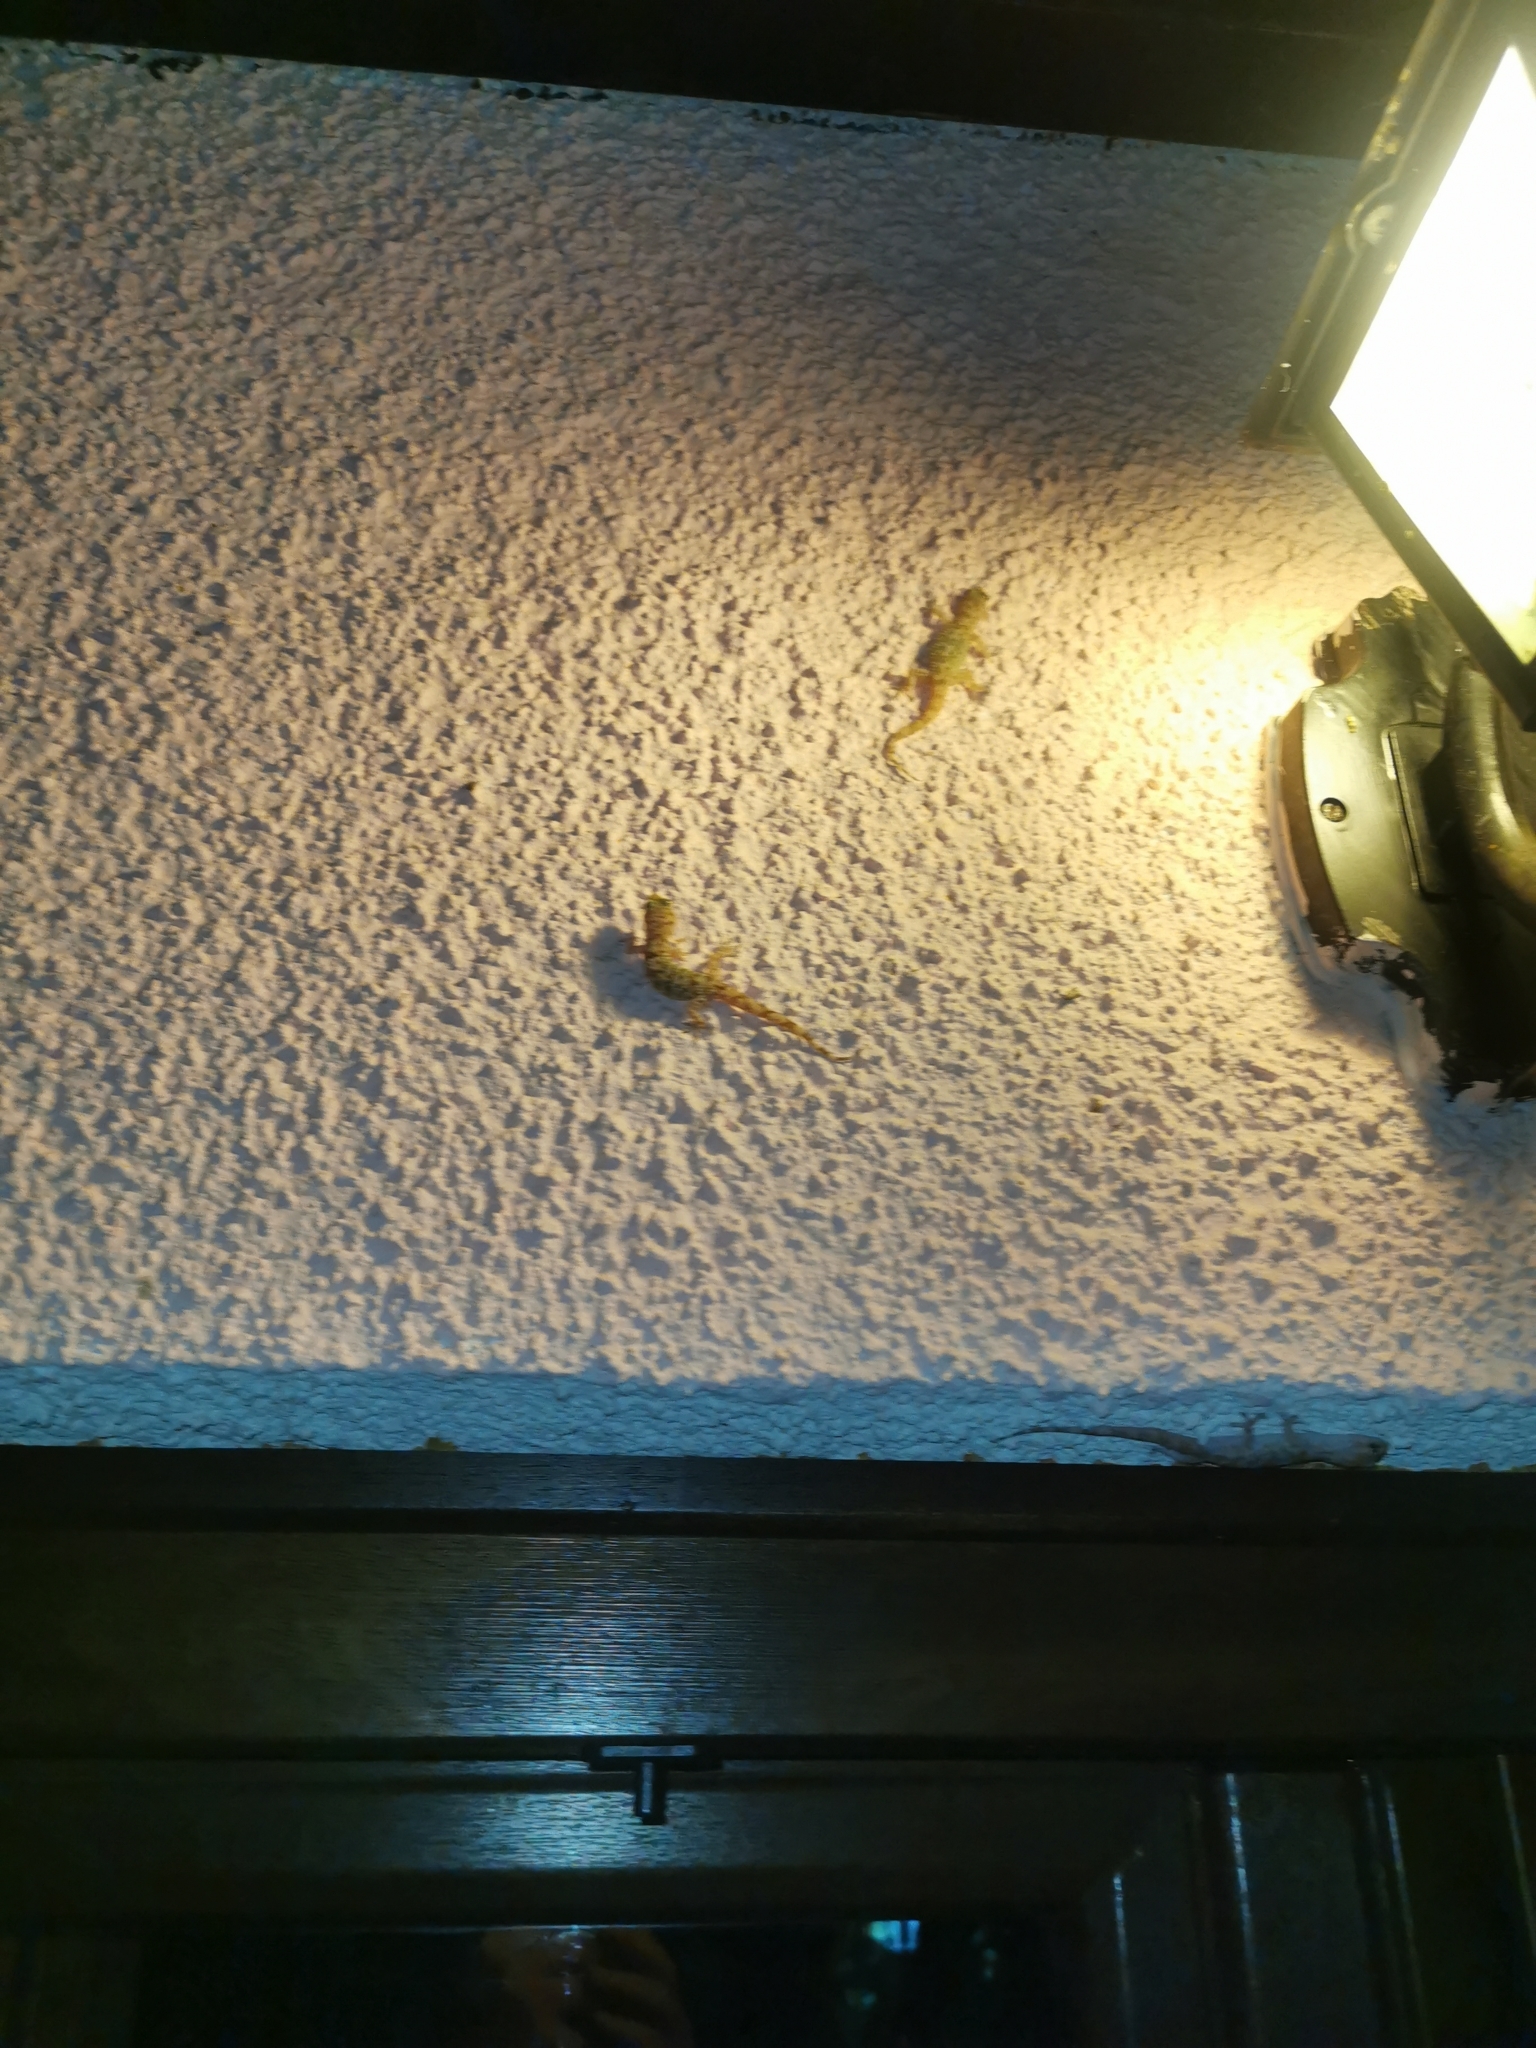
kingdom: Animalia
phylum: Chordata
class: Squamata
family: Gekkonidae
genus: Hemidactylus
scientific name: Hemidactylus turcicus
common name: Turkish gecko
